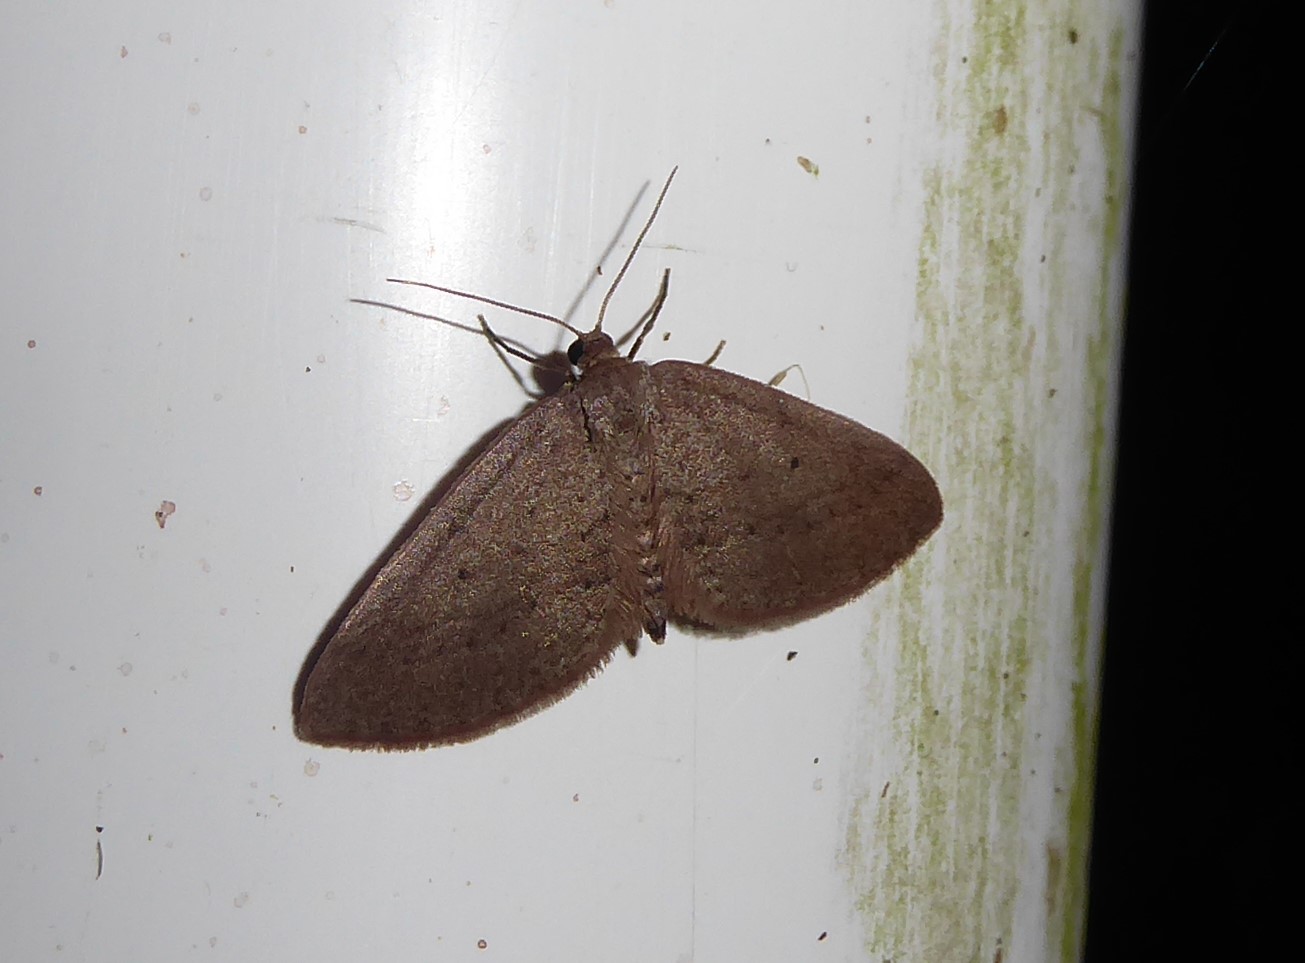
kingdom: Animalia
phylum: Arthropoda
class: Insecta
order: Lepidoptera
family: Geometridae
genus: Poecilasthena
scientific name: Poecilasthena schistaria
